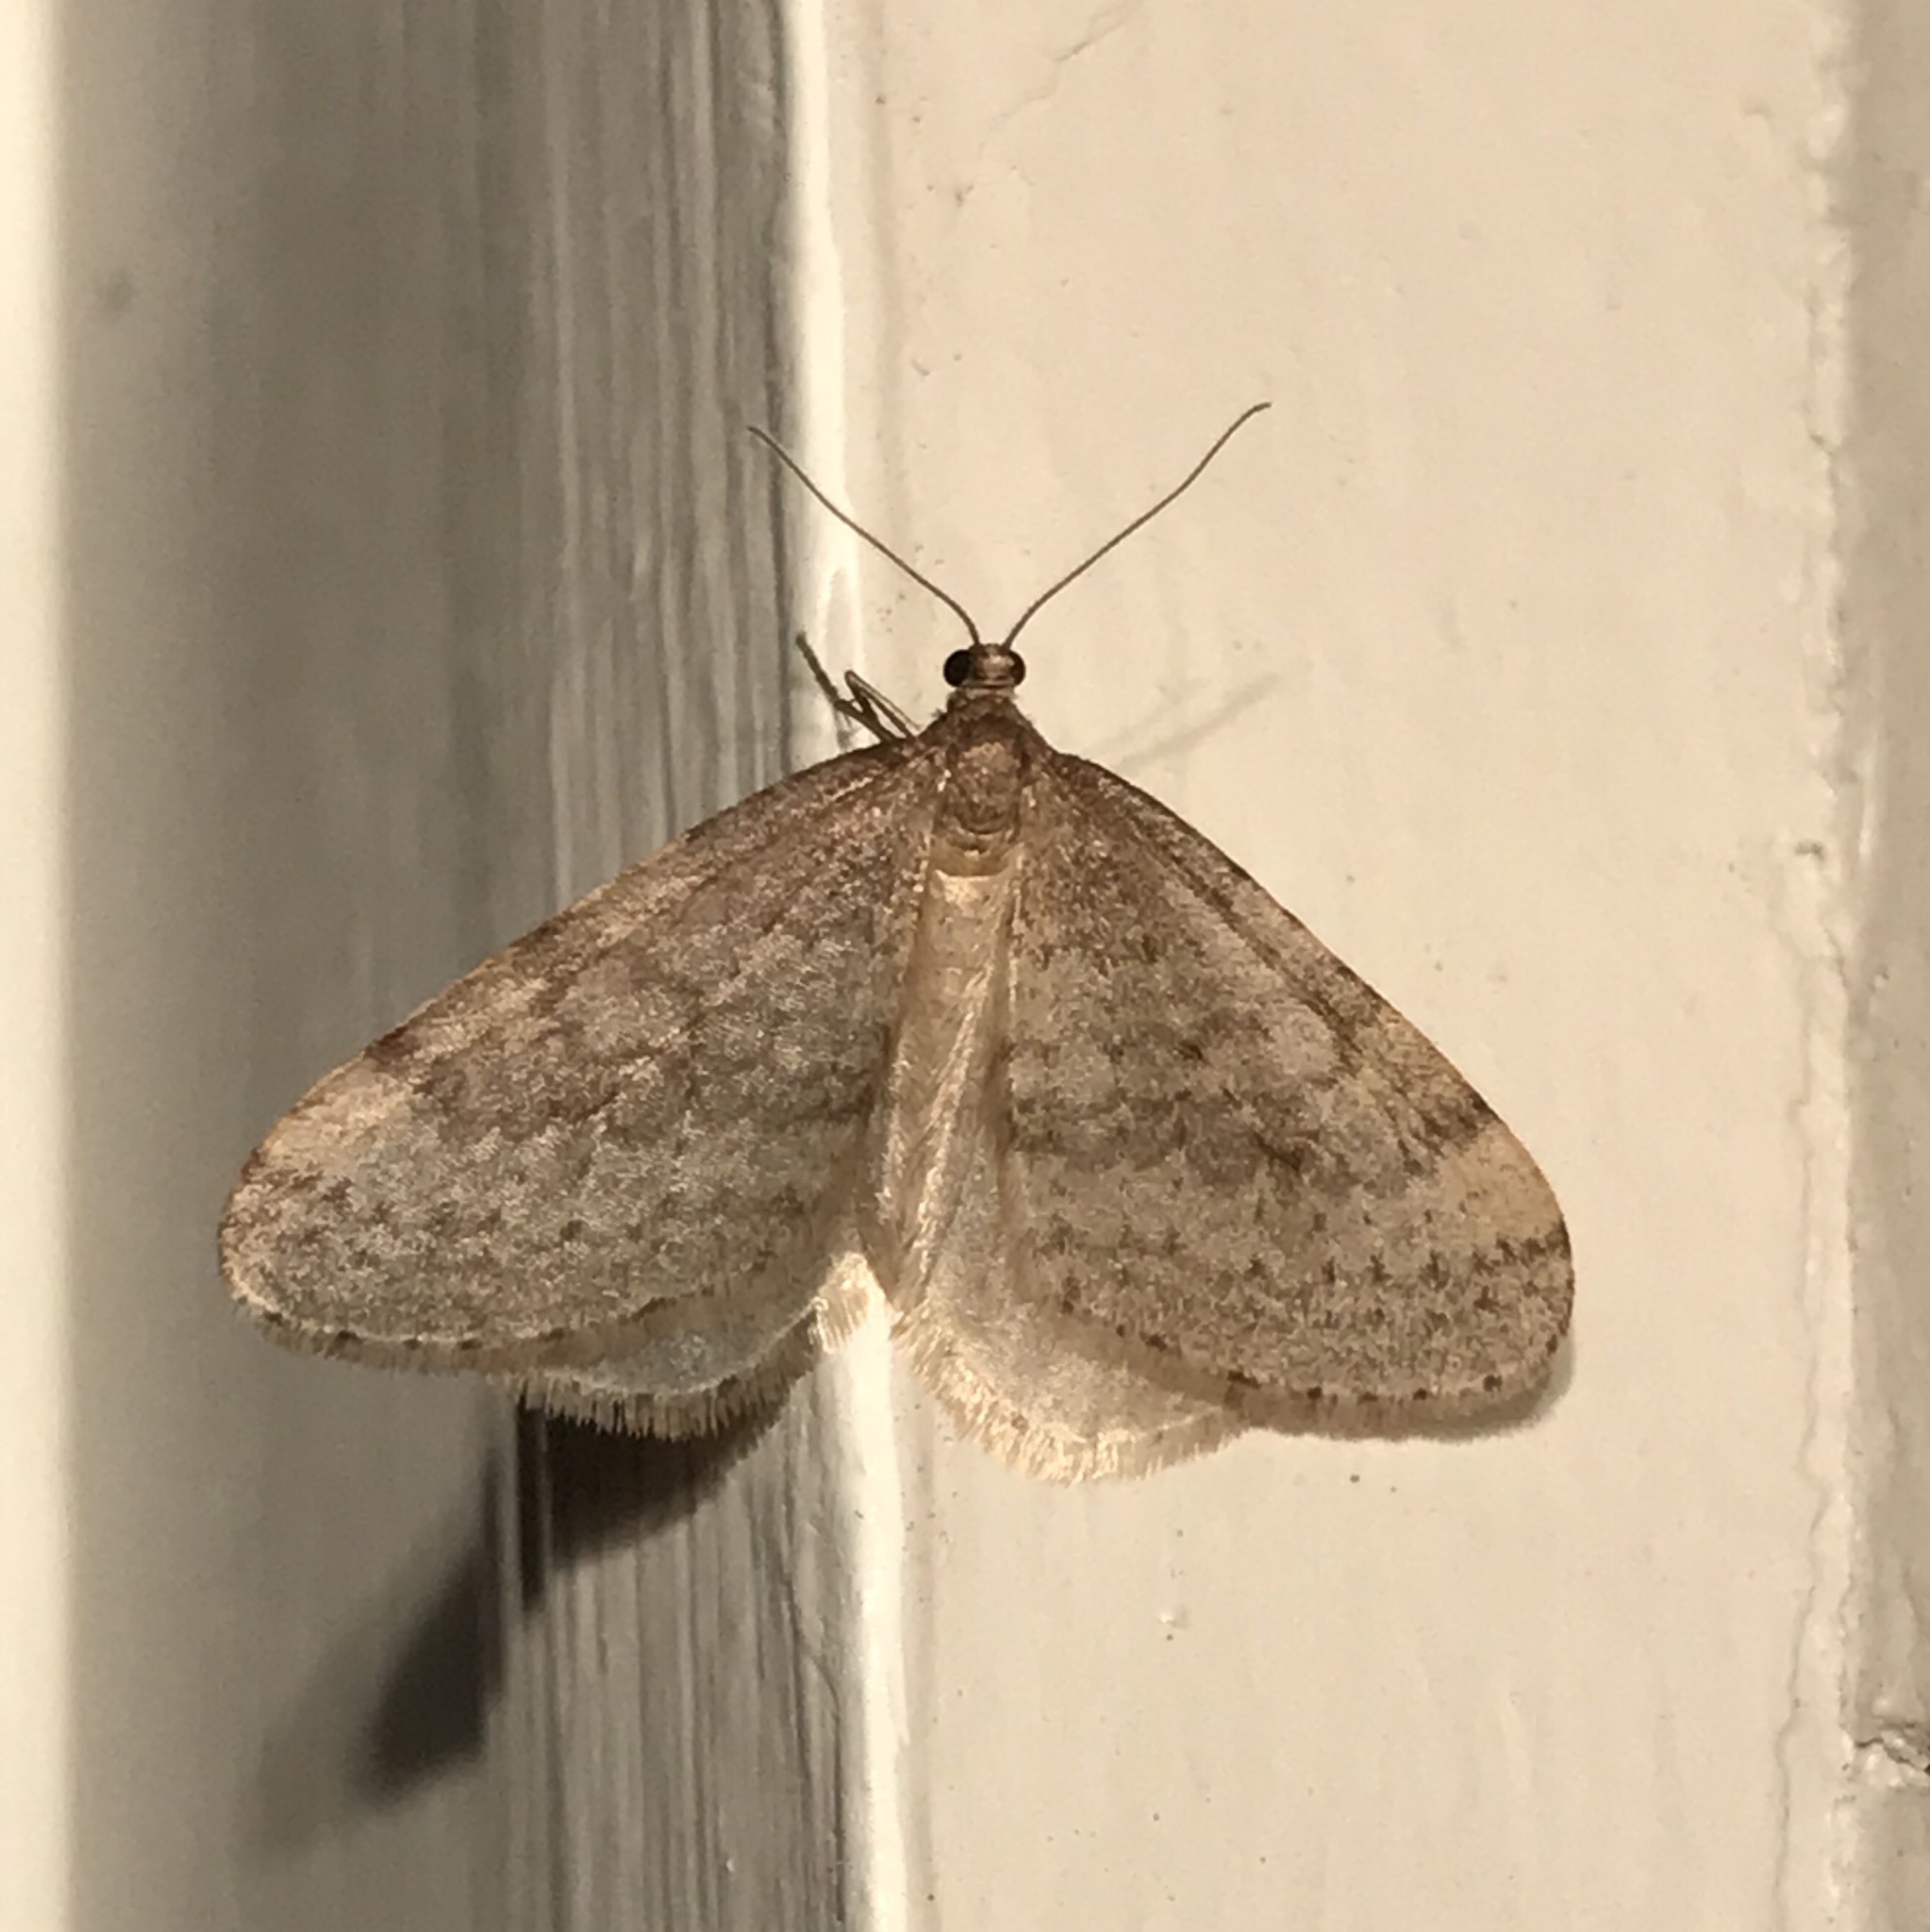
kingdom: Animalia
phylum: Arthropoda
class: Insecta
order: Lepidoptera
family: Geometridae
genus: Operophtera
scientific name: Operophtera bruceata
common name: Bruce spanworm
